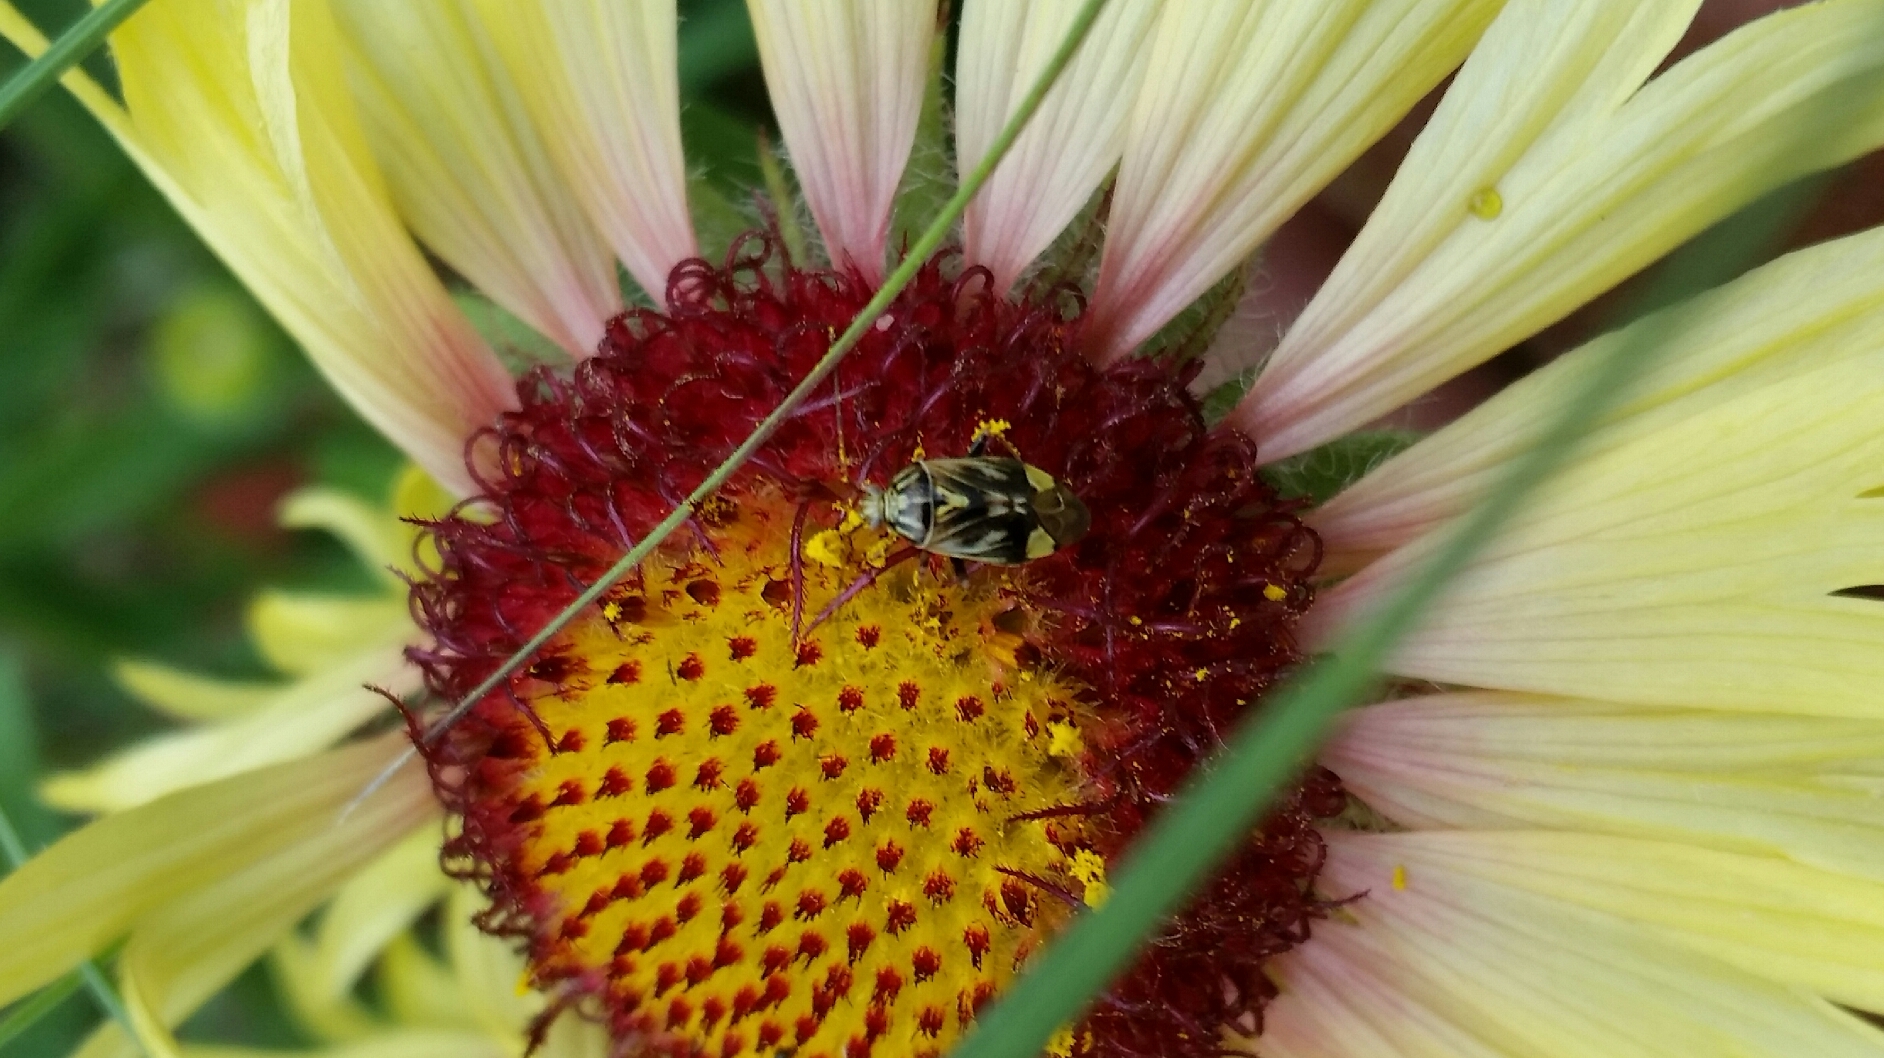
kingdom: Animalia
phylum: Arthropoda
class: Insecta
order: Hemiptera
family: Miridae
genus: Lygus
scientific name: Lygus lineolaris
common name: North american tarnished plant bug
